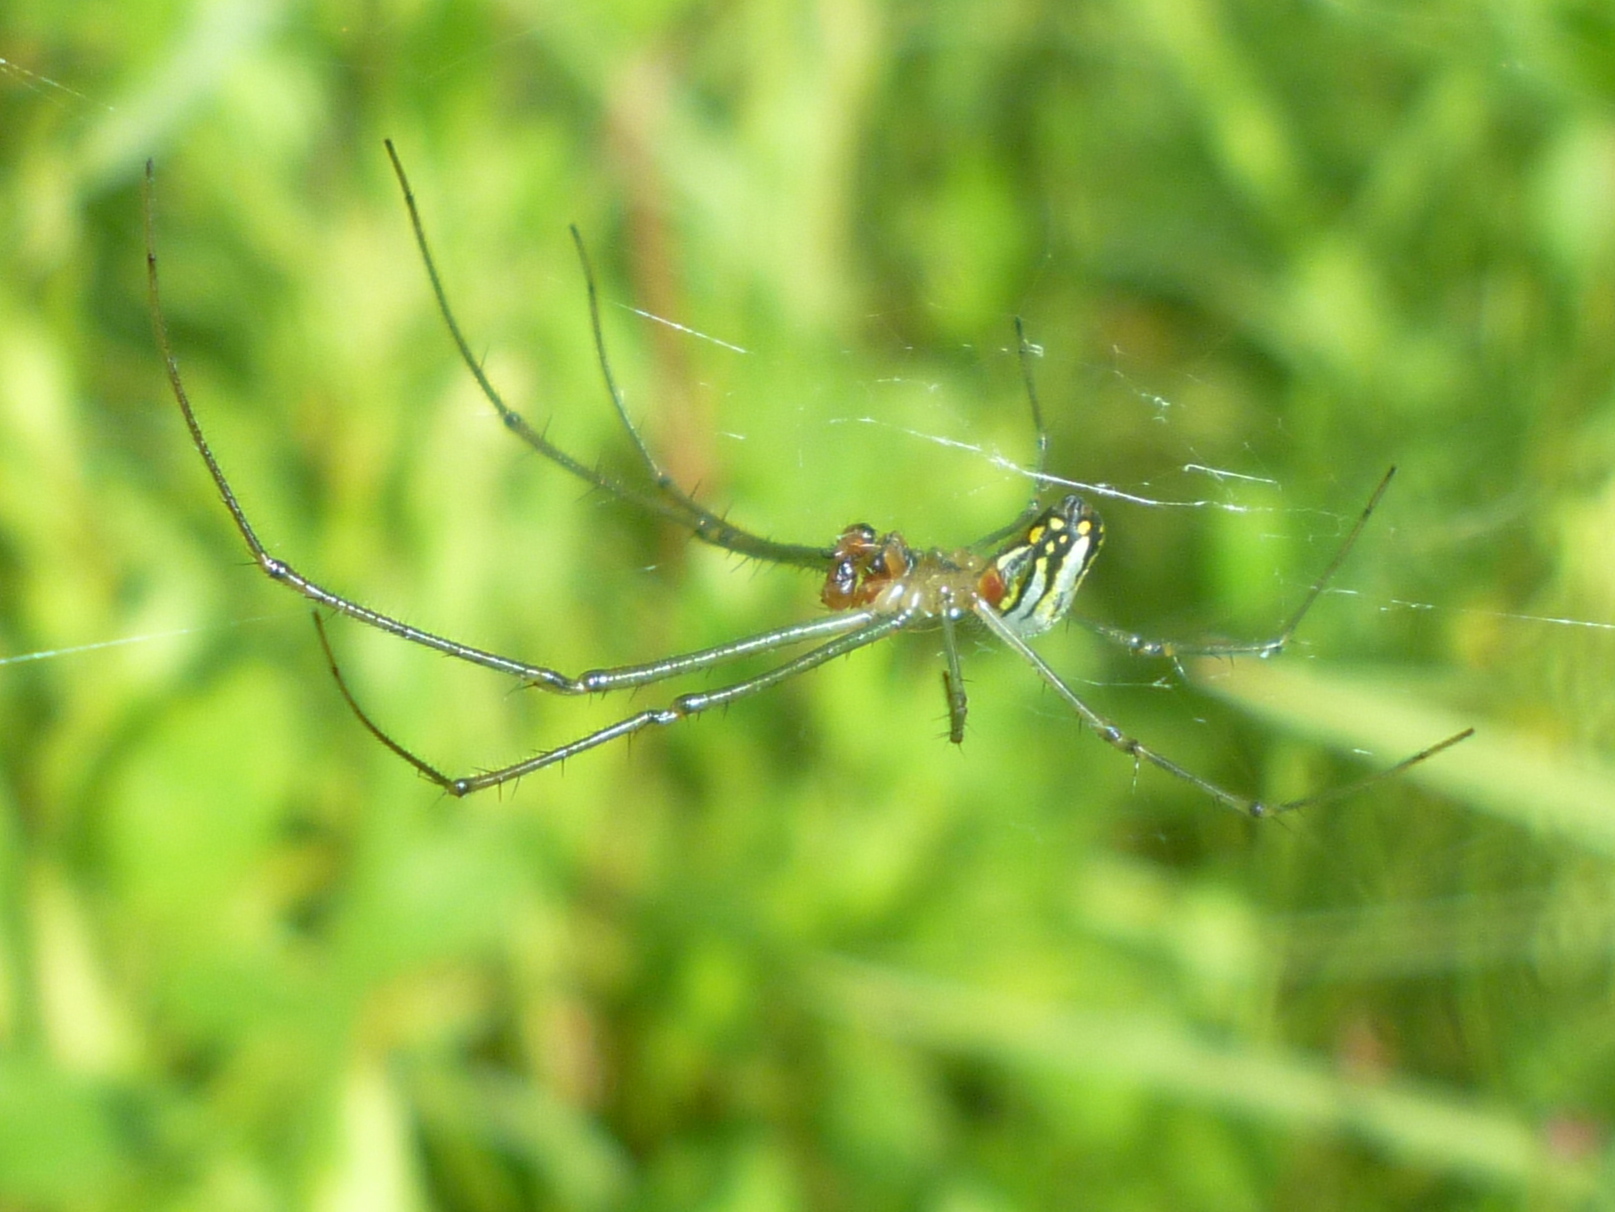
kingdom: Animalia
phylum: Arthropoda
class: Arachnida
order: Araneae
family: Tetragnathidae
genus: Leucauge
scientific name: Leucauge argyra
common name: Longjawed orb weavers
